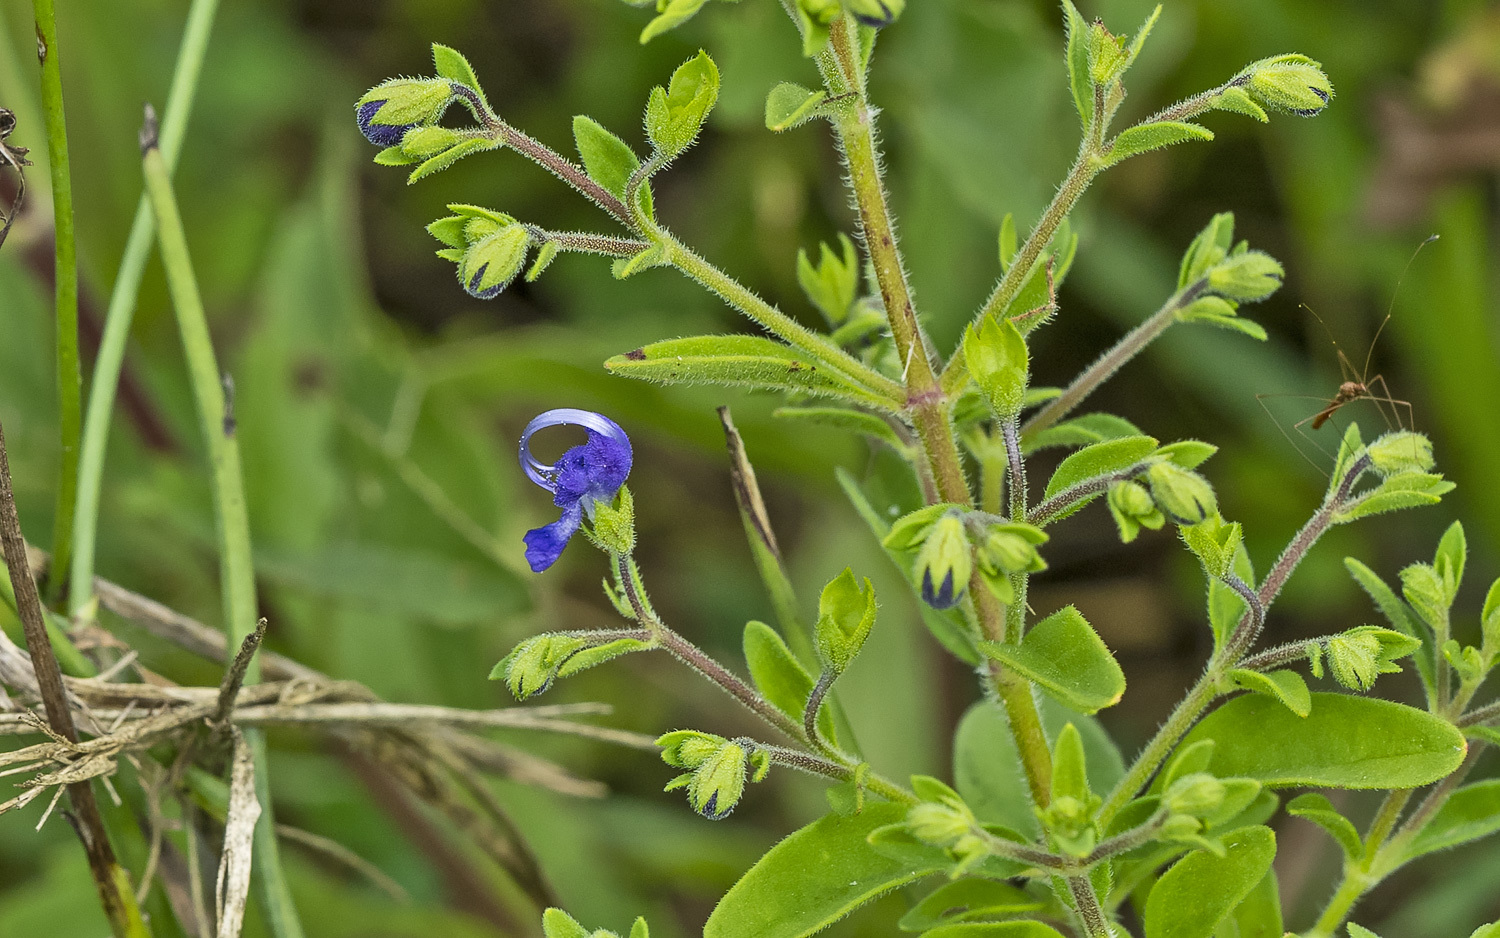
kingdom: Plantae
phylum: Tracheophyta
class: Magnoliopsida
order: Lamiales
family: Lamiaceae
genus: Trichostema
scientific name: Trichostema dichotomum
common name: Bastard pennyroyal
